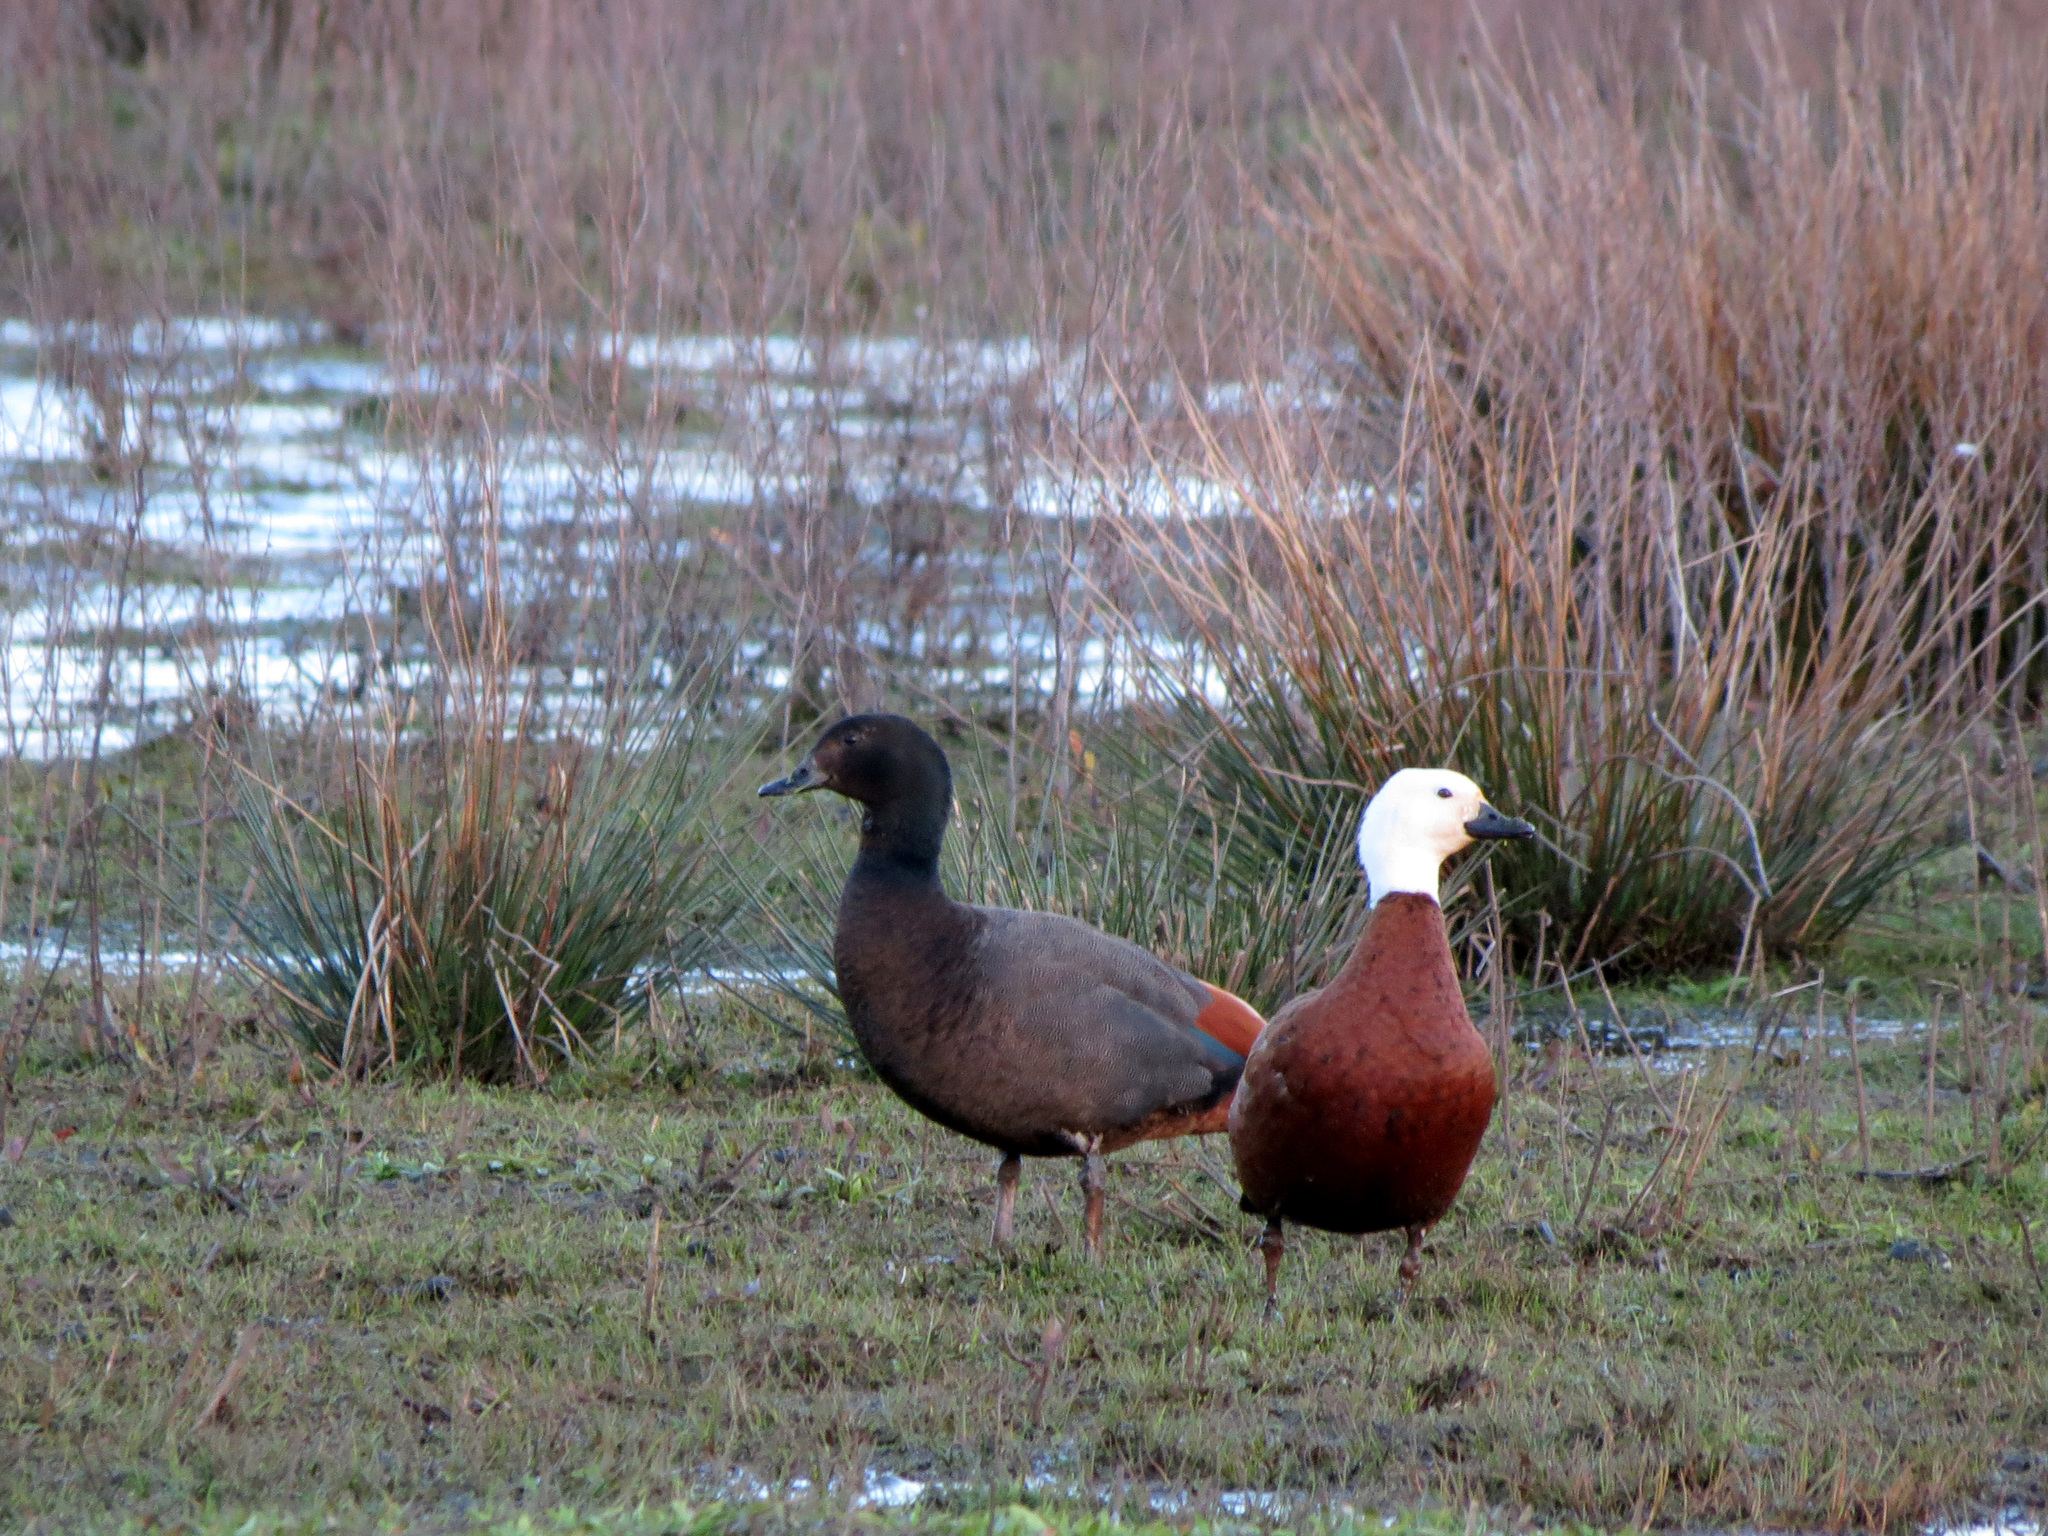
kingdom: Animalia
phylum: Chordata
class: Aves
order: Anseriformes
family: Anatidae
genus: Tadorna
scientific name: Tadorna variegata
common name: Paradise shelduck
